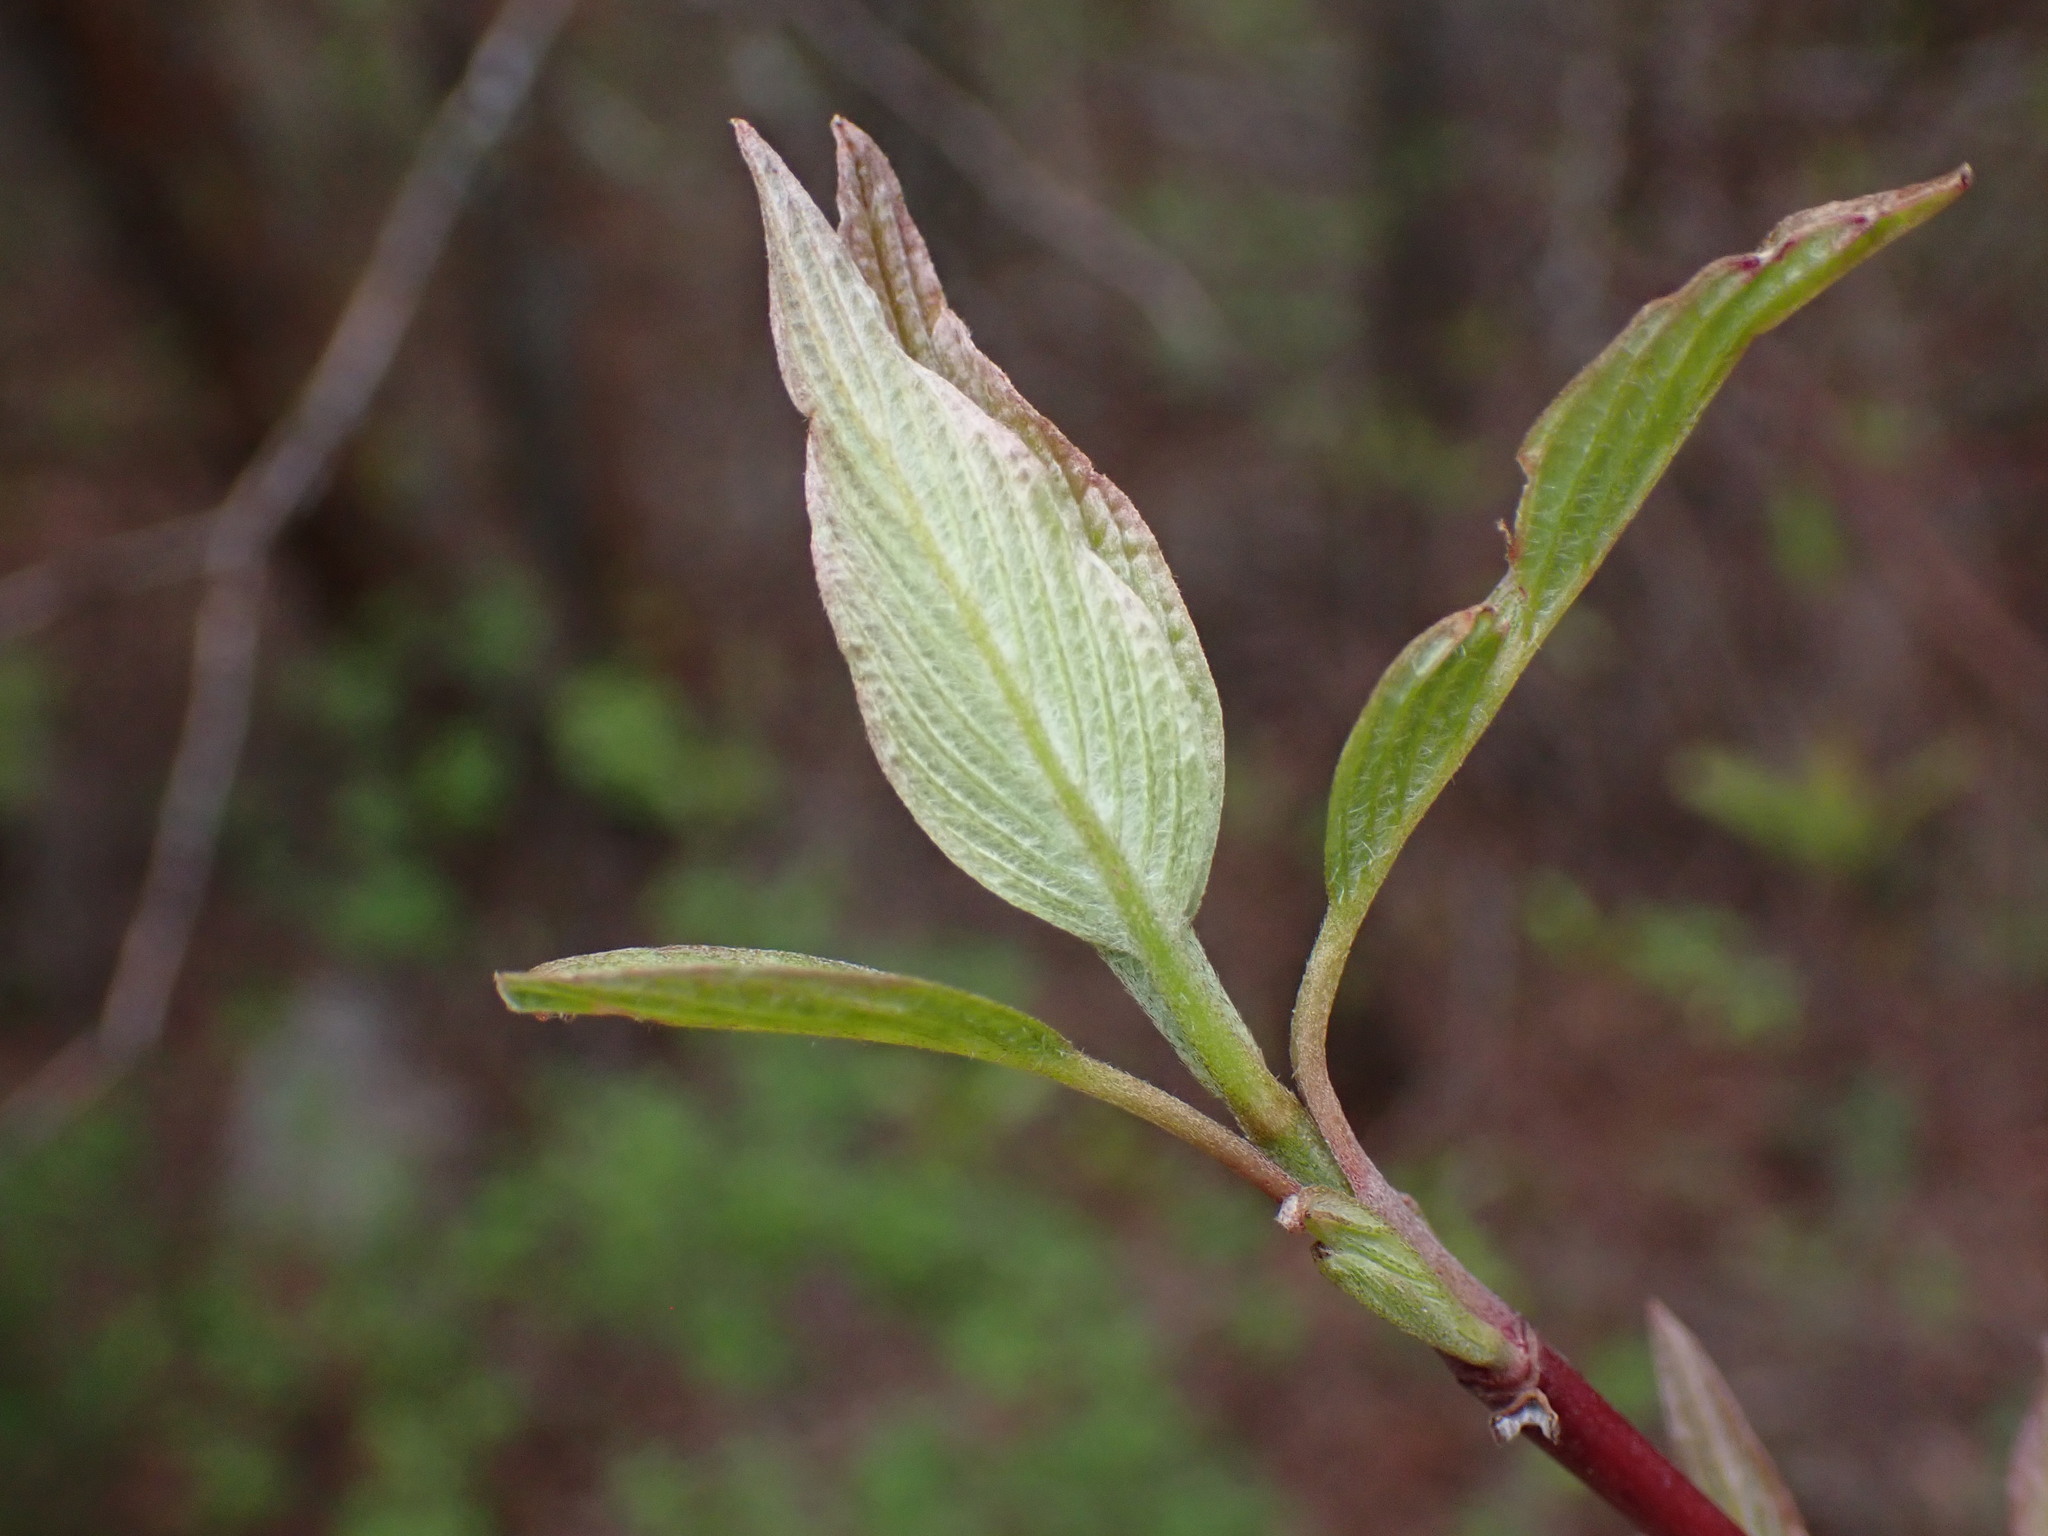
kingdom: Plantae
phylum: Tracheophyta
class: Magnoliopsida
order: Cornales
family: Cornaceae
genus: Cornus
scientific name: Cornus sericea
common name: Red-osier dogwood
